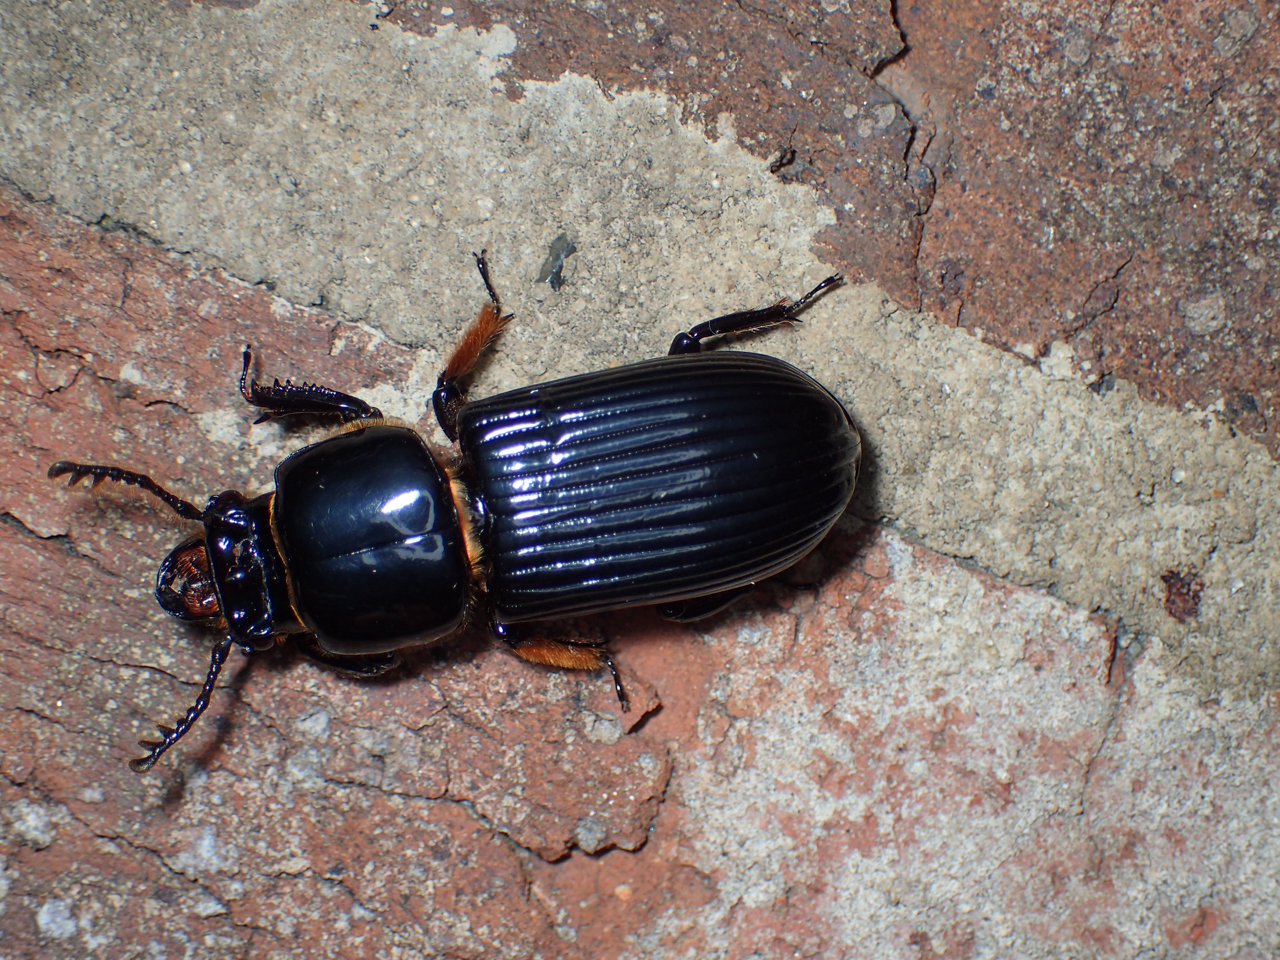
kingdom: Animalia
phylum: Arthropoda
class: Insecta
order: Coleoptera
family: Passalidae
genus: Odontotaenius
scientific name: Odontotaenius disjunctus
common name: Patent leather beetle
